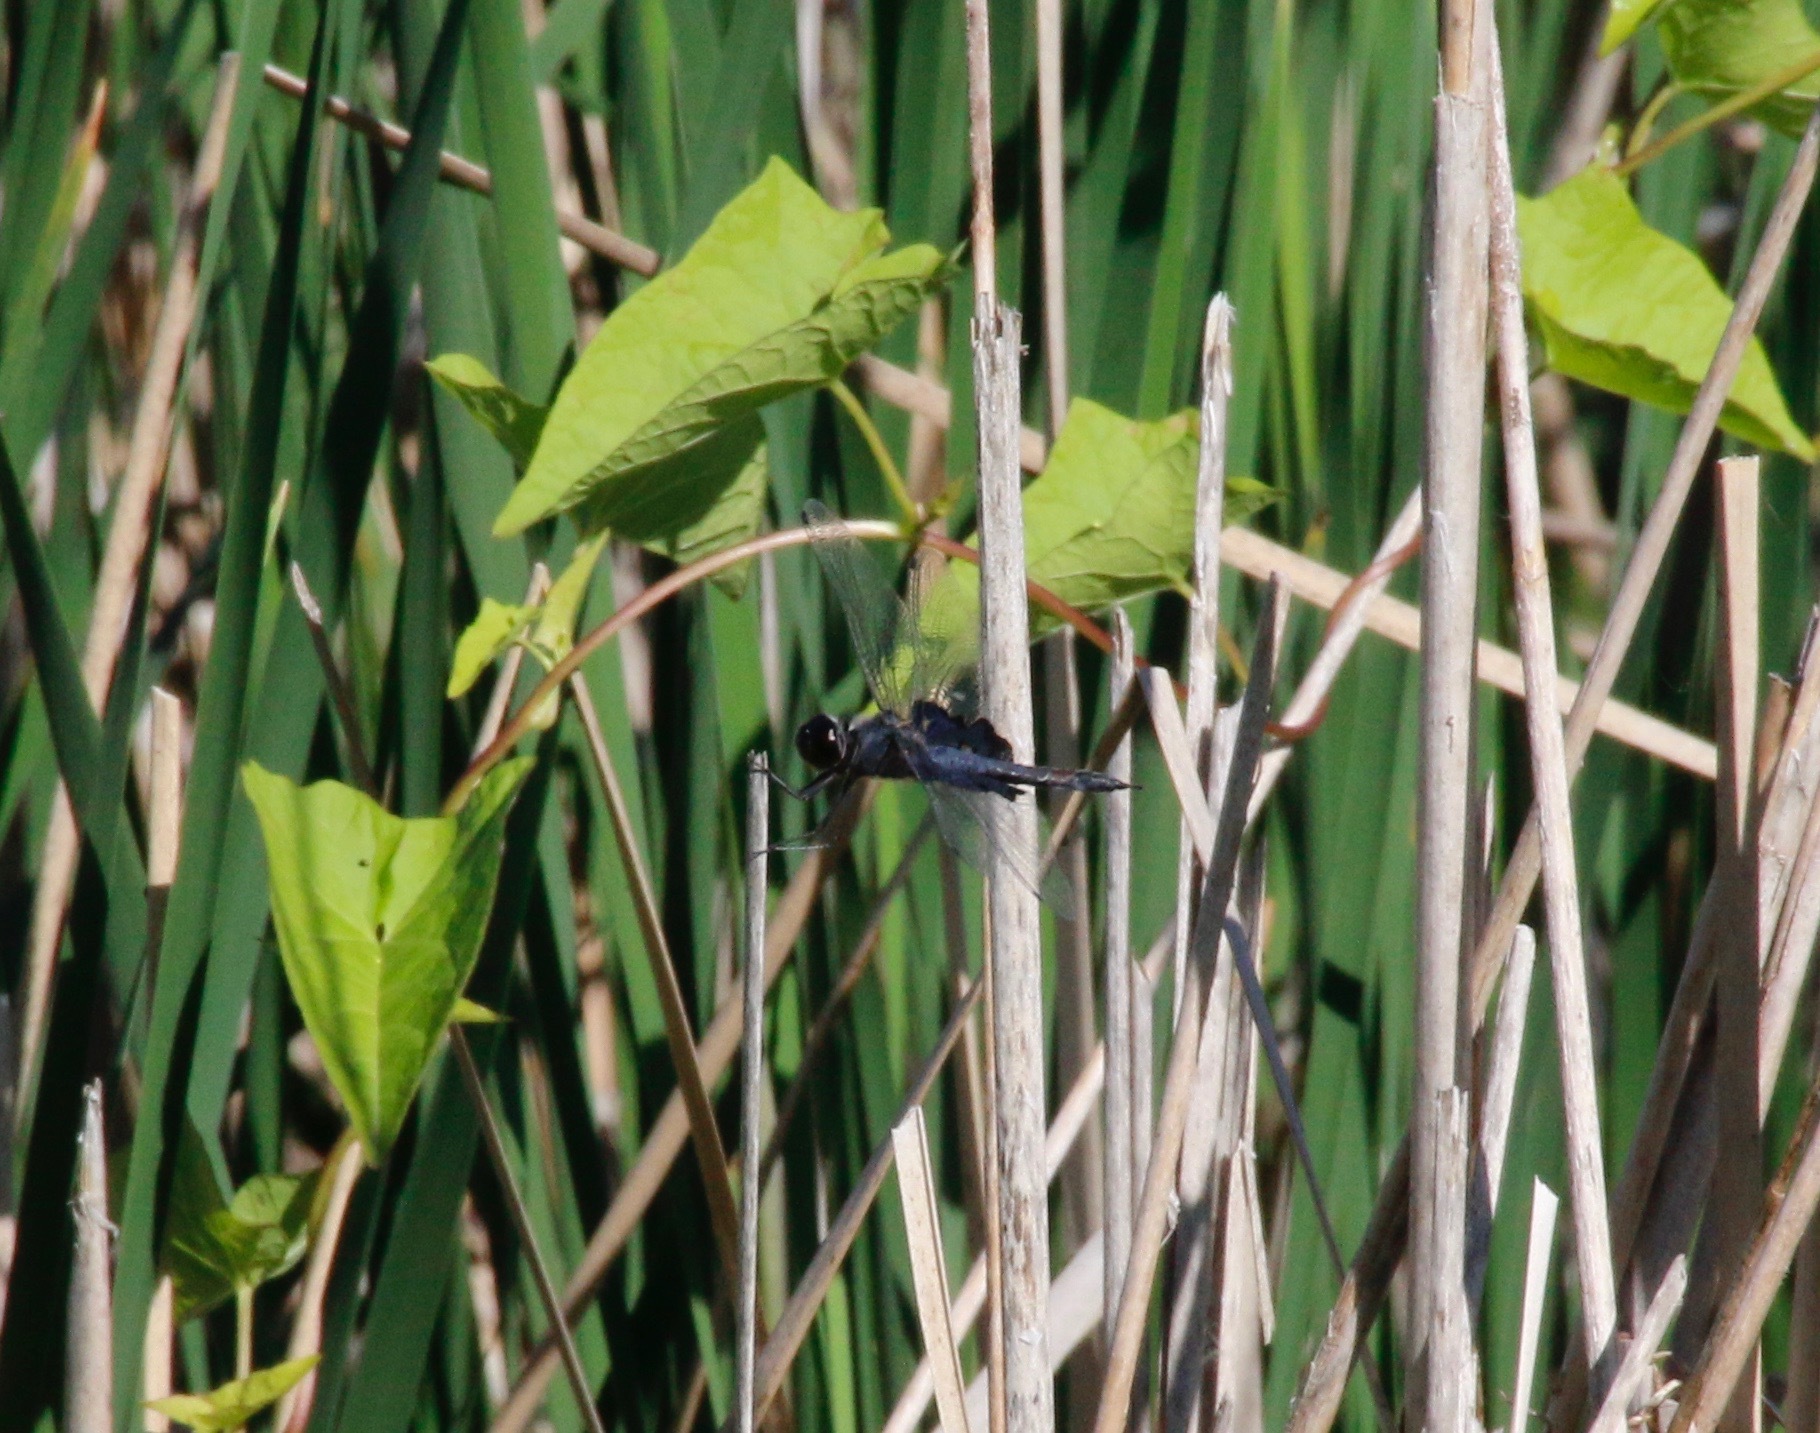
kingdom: Animalia
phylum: Arthropoda
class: Insecta
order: Odonata
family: Libellulidae
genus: Tramea
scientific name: Tramea lacerata
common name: Black saddlebags
